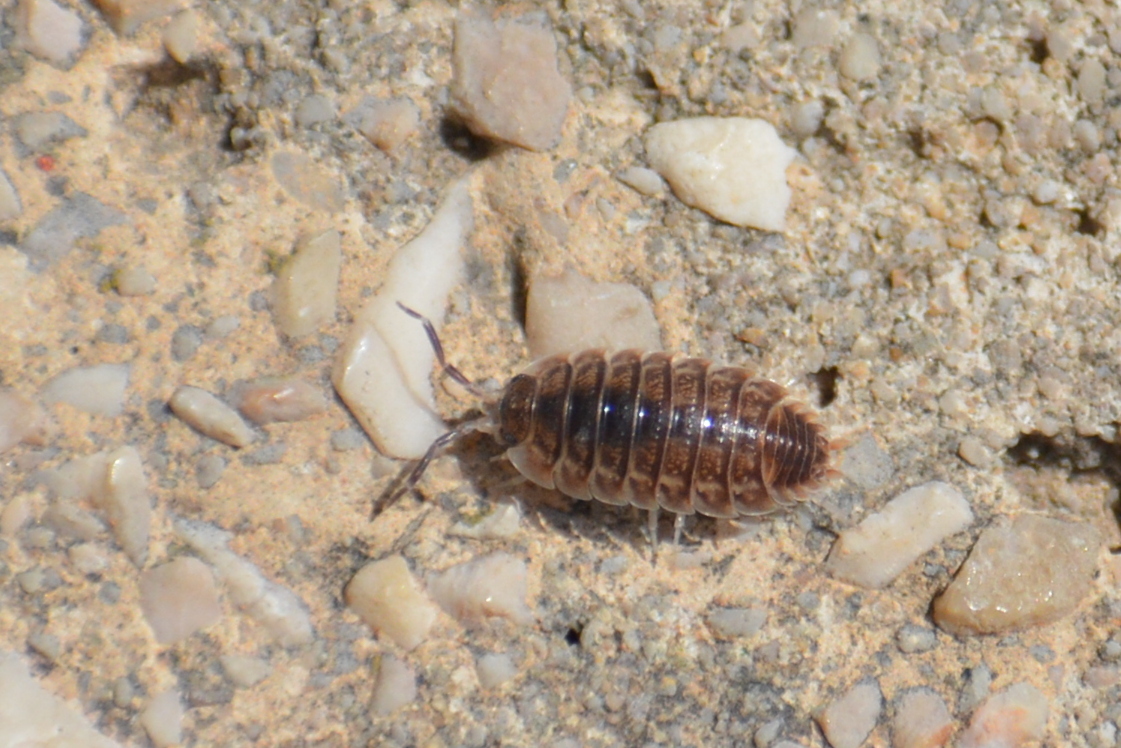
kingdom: Animalia
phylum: Arthropoda
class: Malacostraca
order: Isopoda
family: Porcellionidae
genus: Porcellio
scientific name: Porcellio obsoletus
